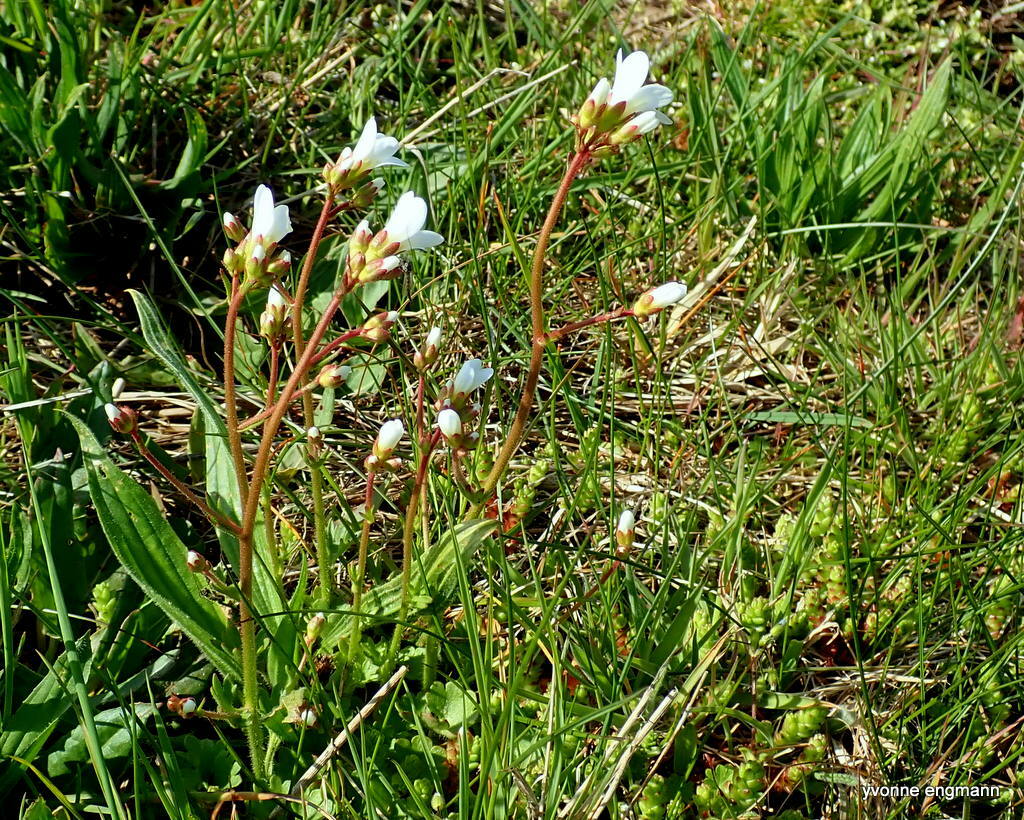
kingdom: Plantae
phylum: Tracheophyta
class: Magnoliopsida
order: Saxifragales
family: Saxifragaceae
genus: Saxifraga
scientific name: Saxifraga granulata
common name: Meadow saxifrage
